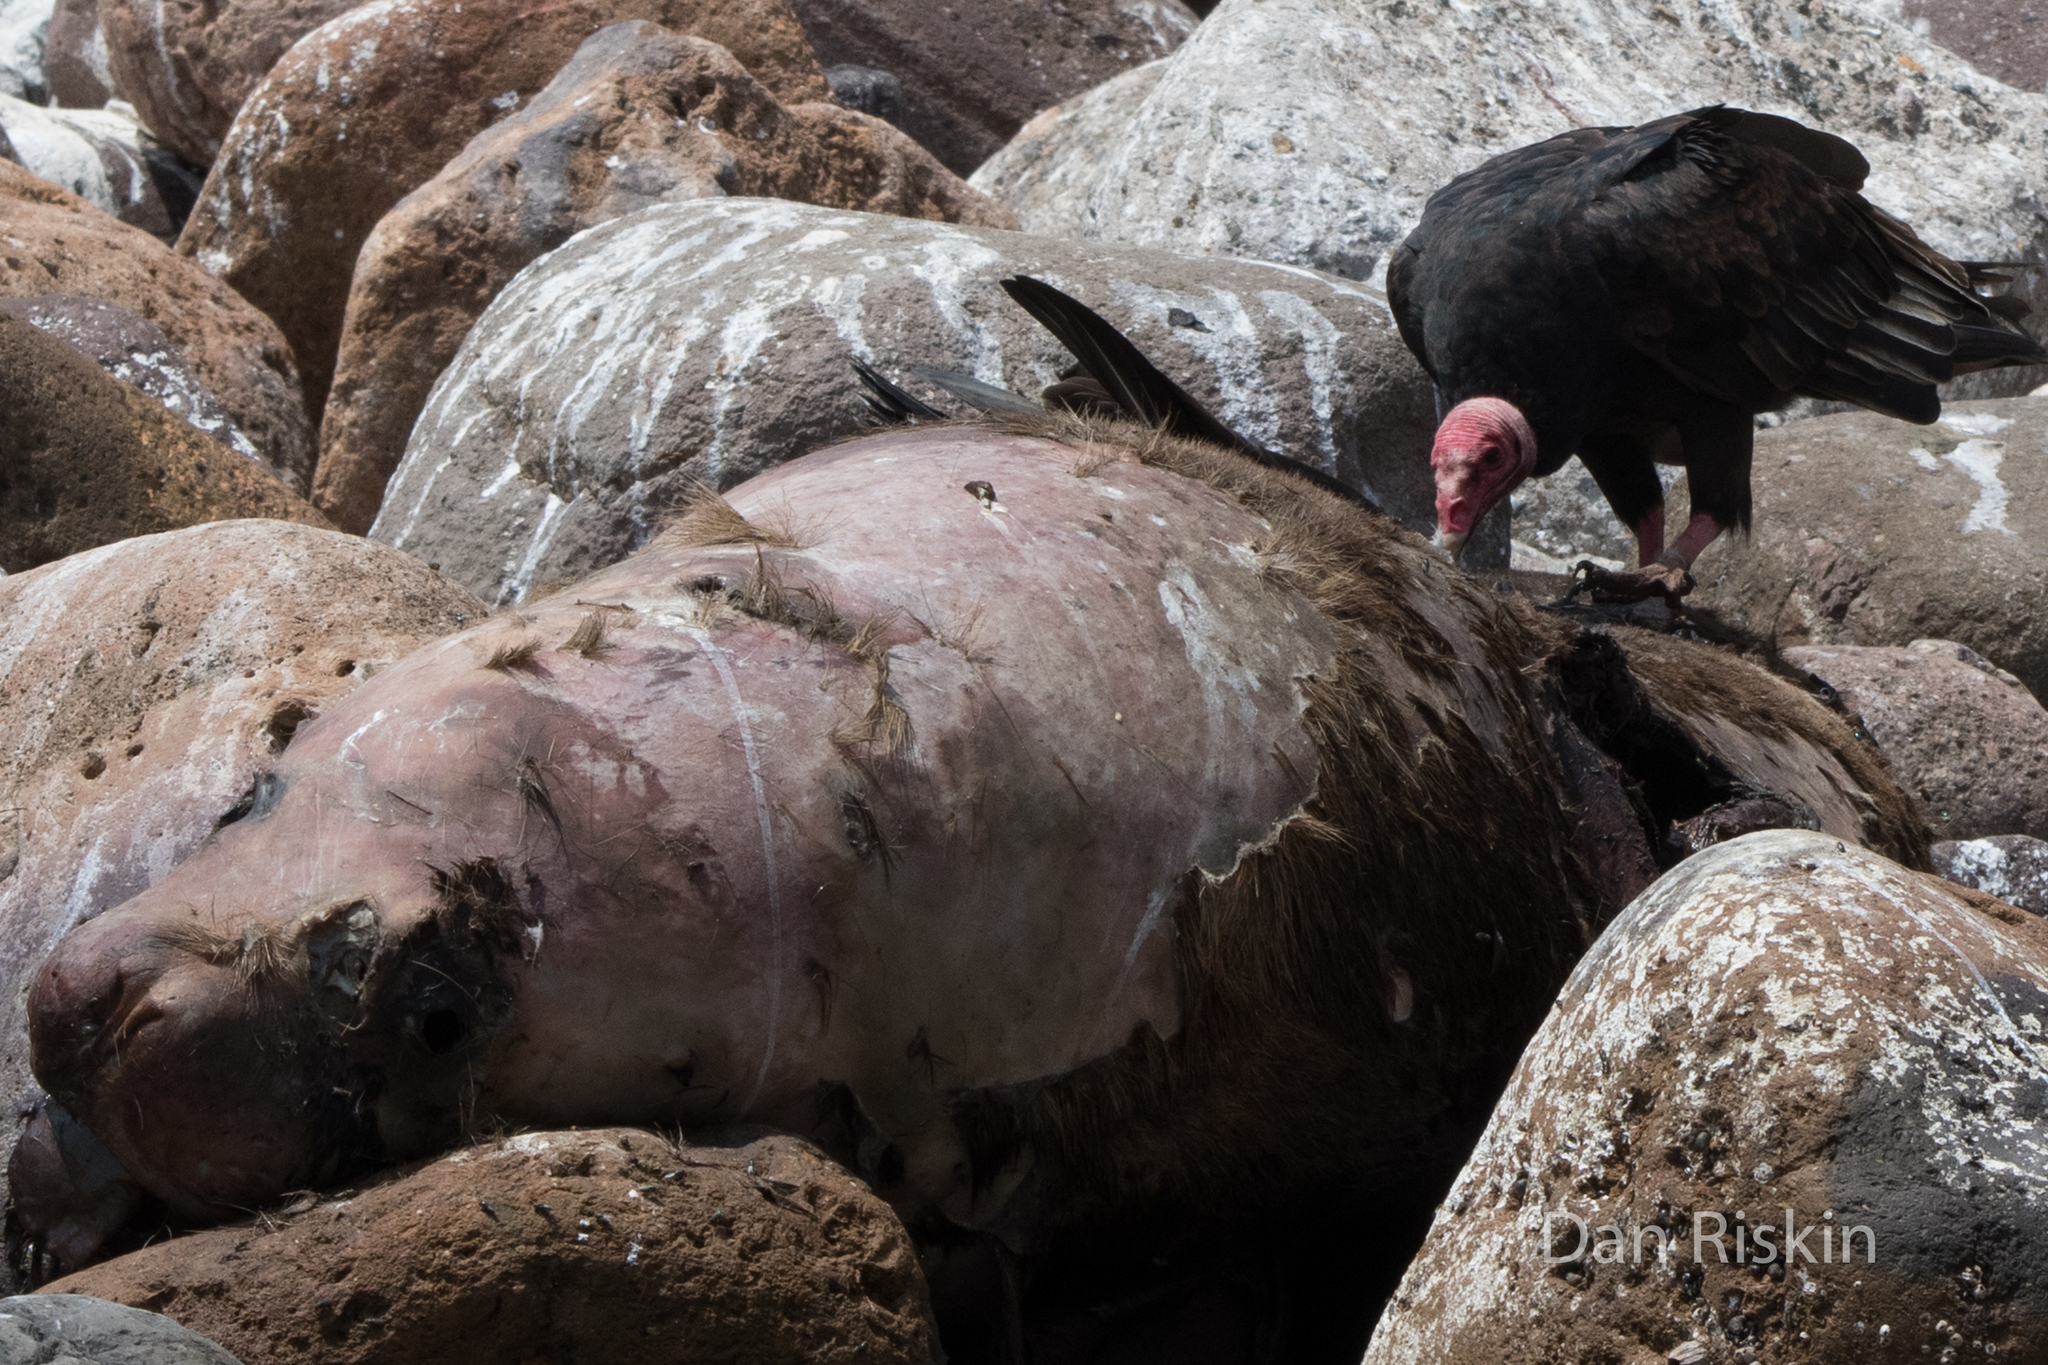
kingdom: Animalia
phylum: Chordata
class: Aves
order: Accipitriformes
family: Cathartidae
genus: Cathartes
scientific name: Cathartes aura
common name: Turkey vulture
